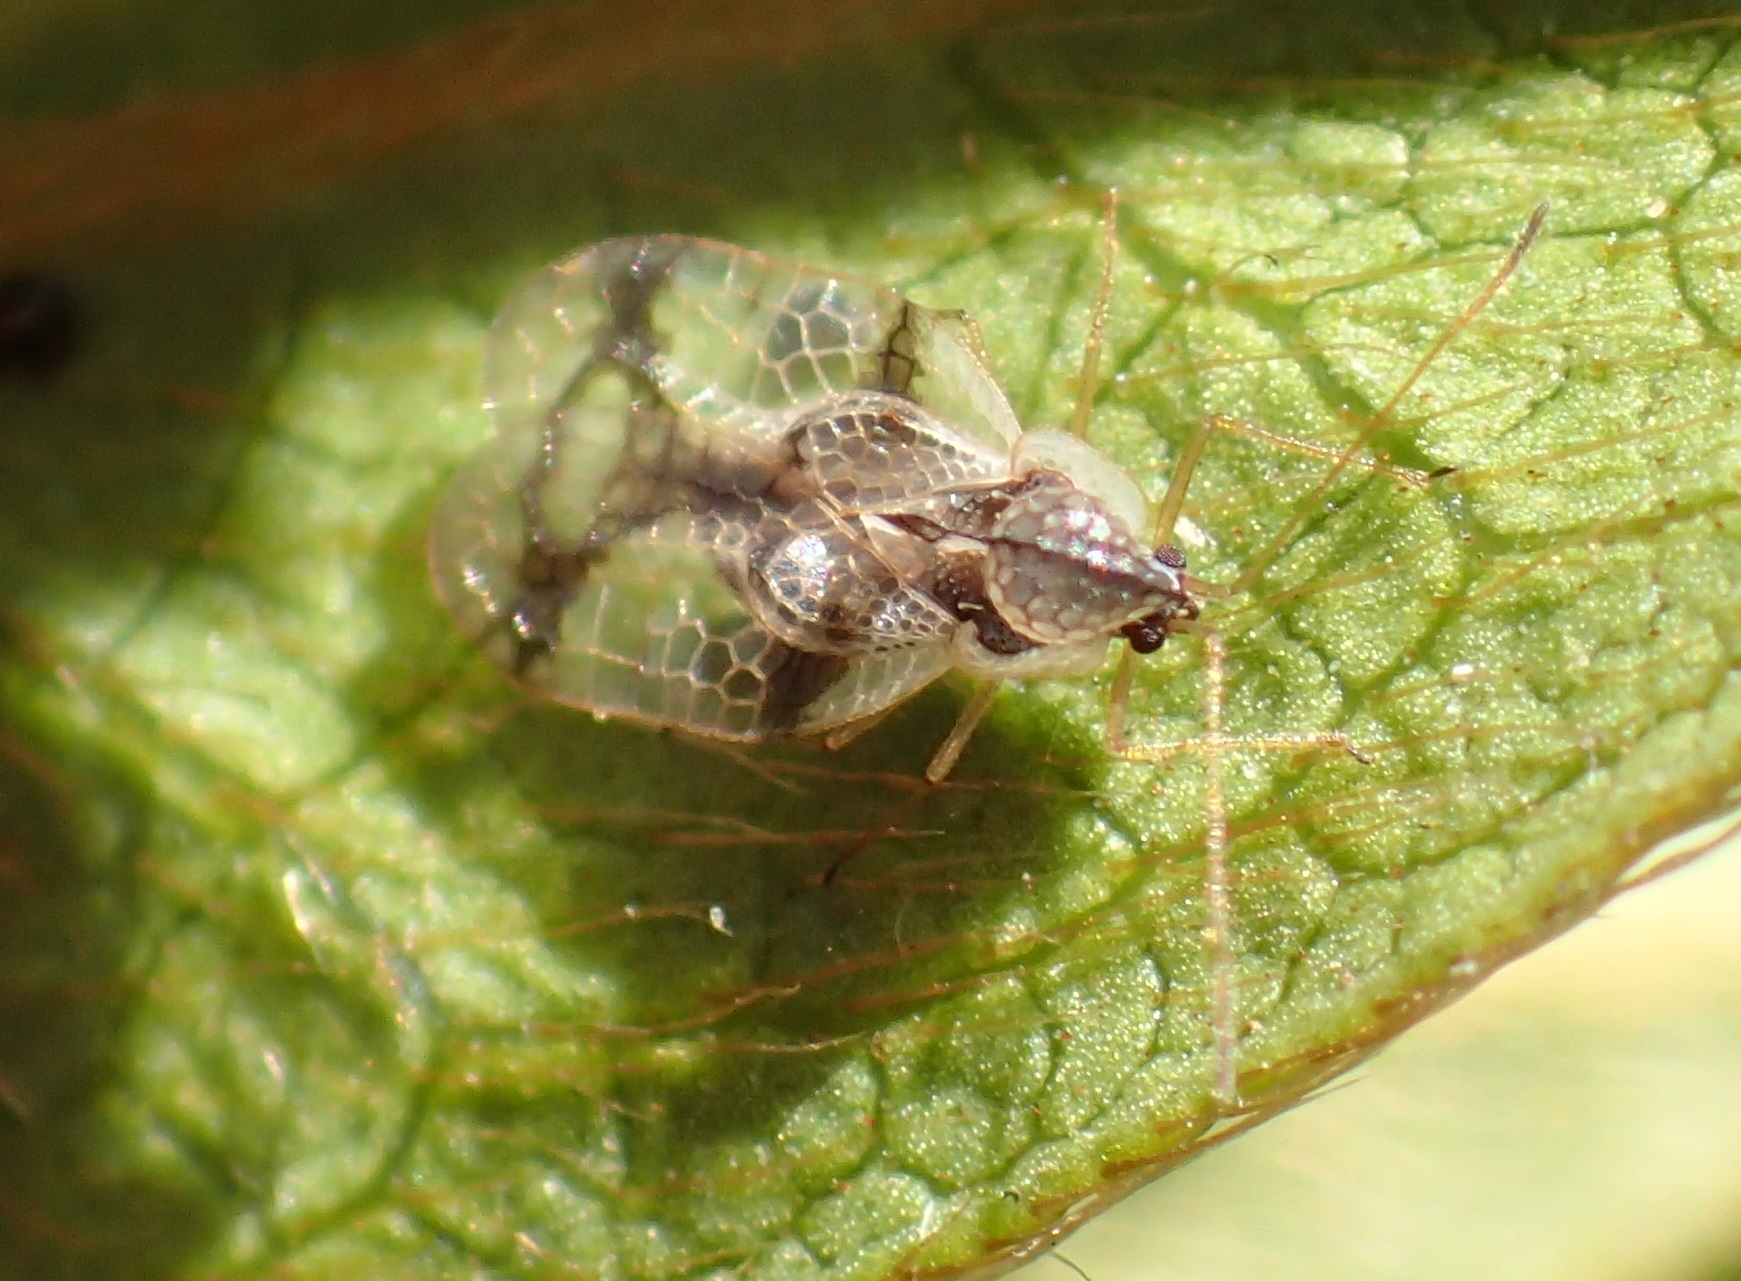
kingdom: Animalia
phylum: Arthropoda
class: Insecta
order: Hemiptera
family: Tingidae
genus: Stephanitis
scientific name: Stephanitis pyrioides
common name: Azalea lace bug
